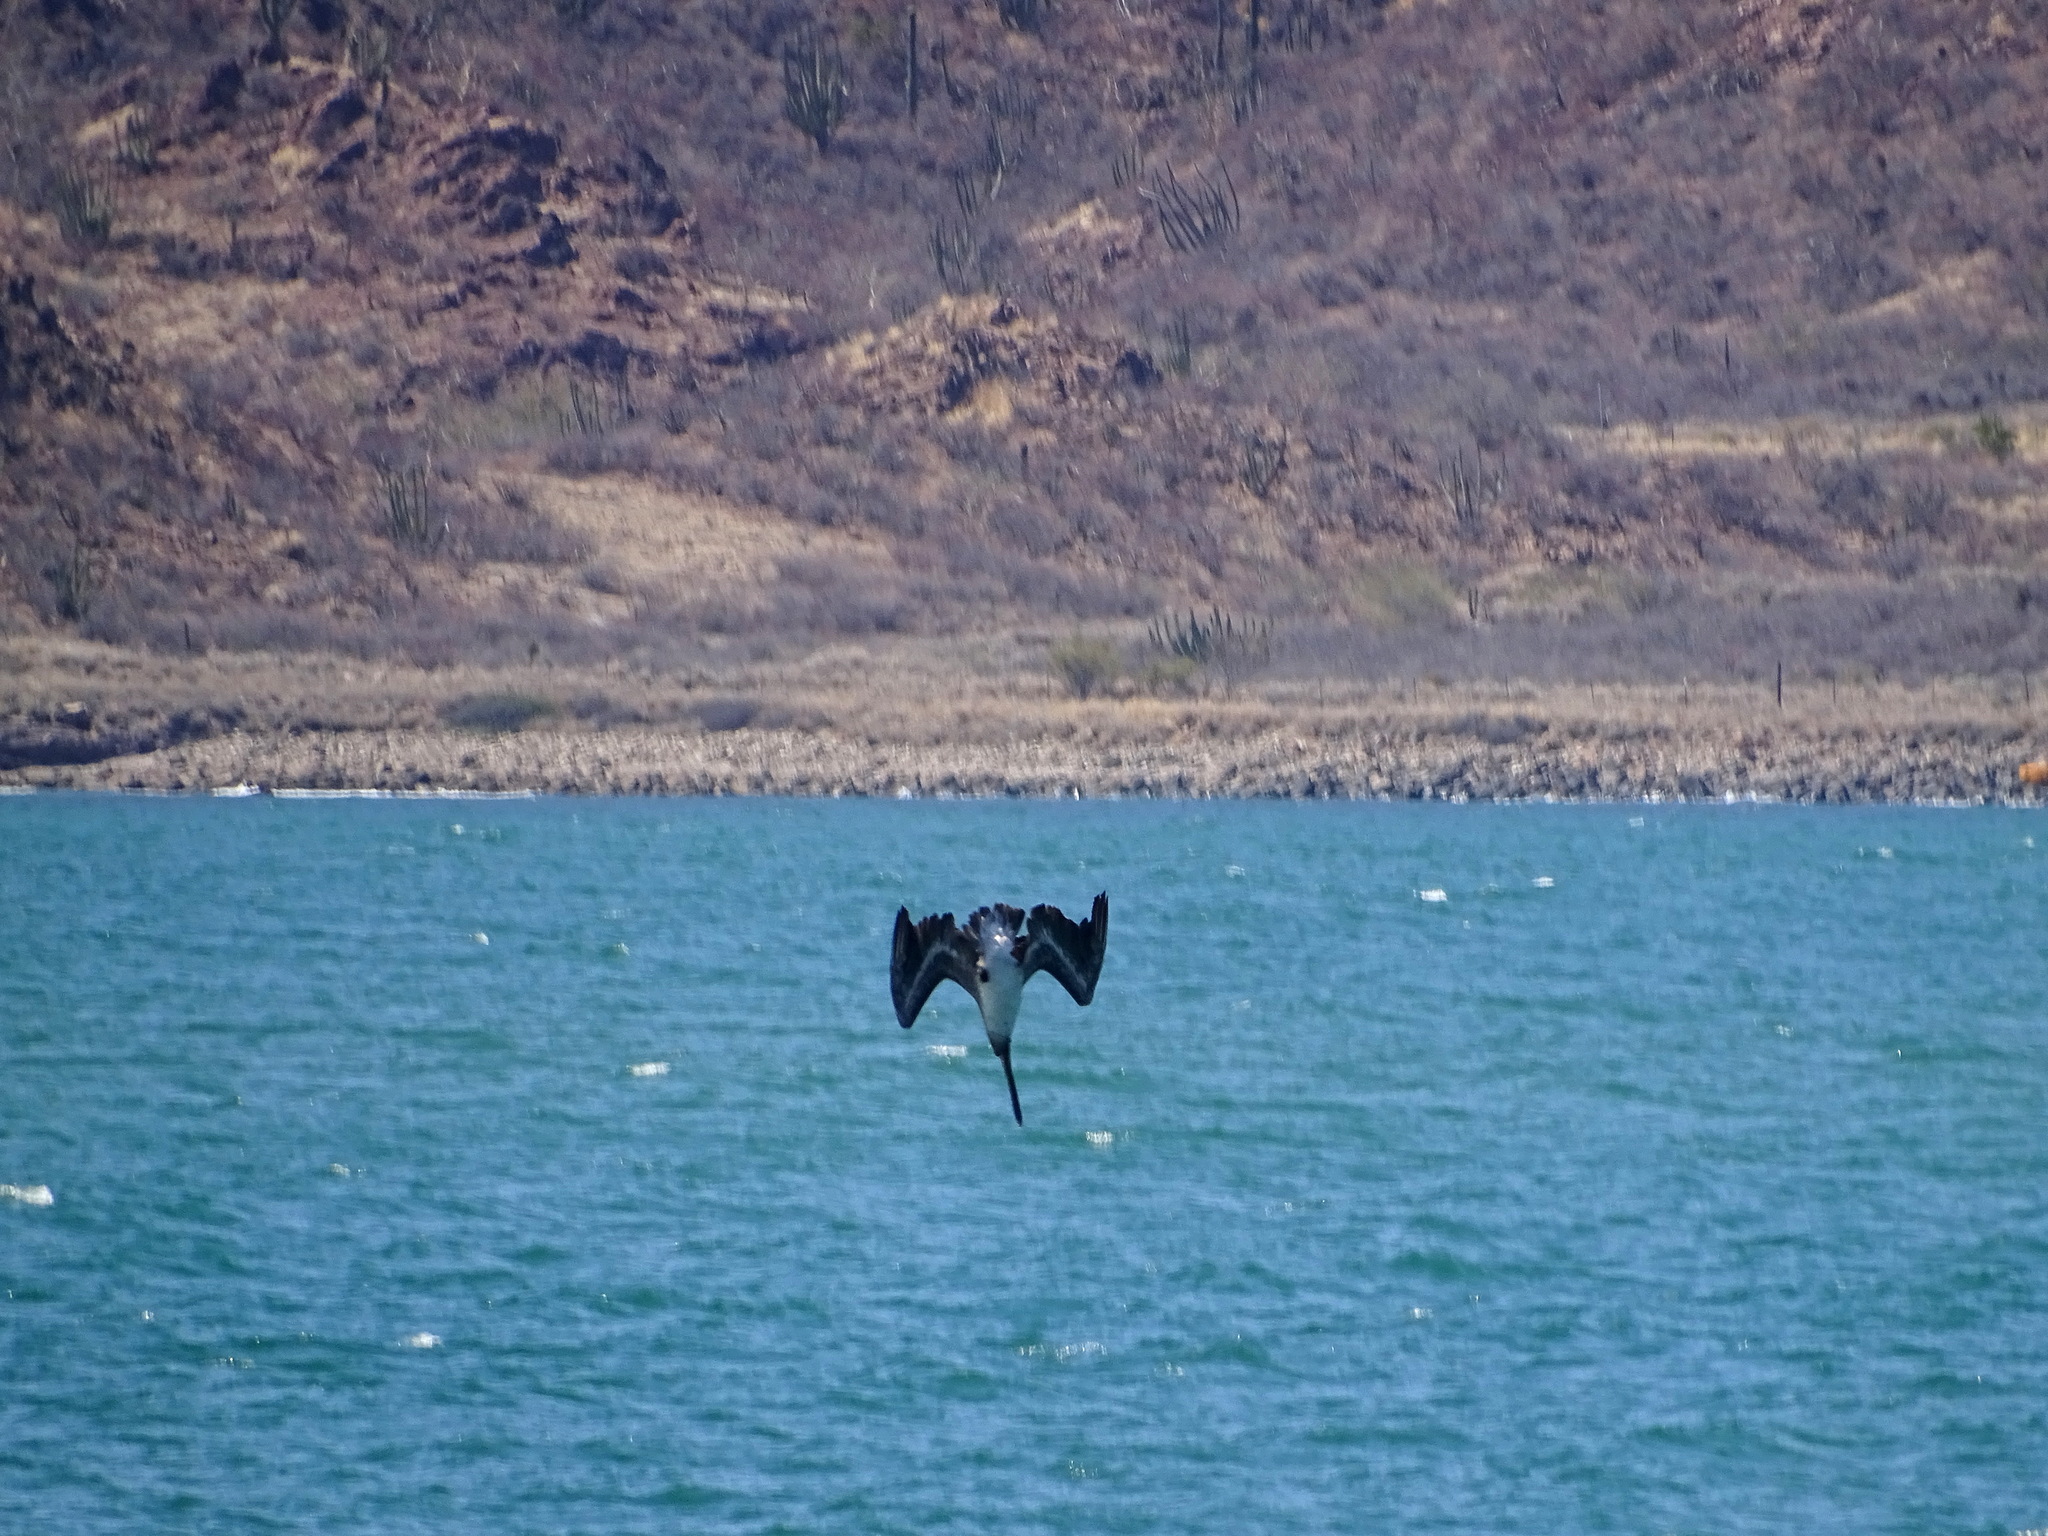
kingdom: Animalia
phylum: Chordata
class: Aves
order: Pelecaniformes
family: Pelecanidae
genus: Pelecanus
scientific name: Pelecanus occidentalis
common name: Brown pelican
